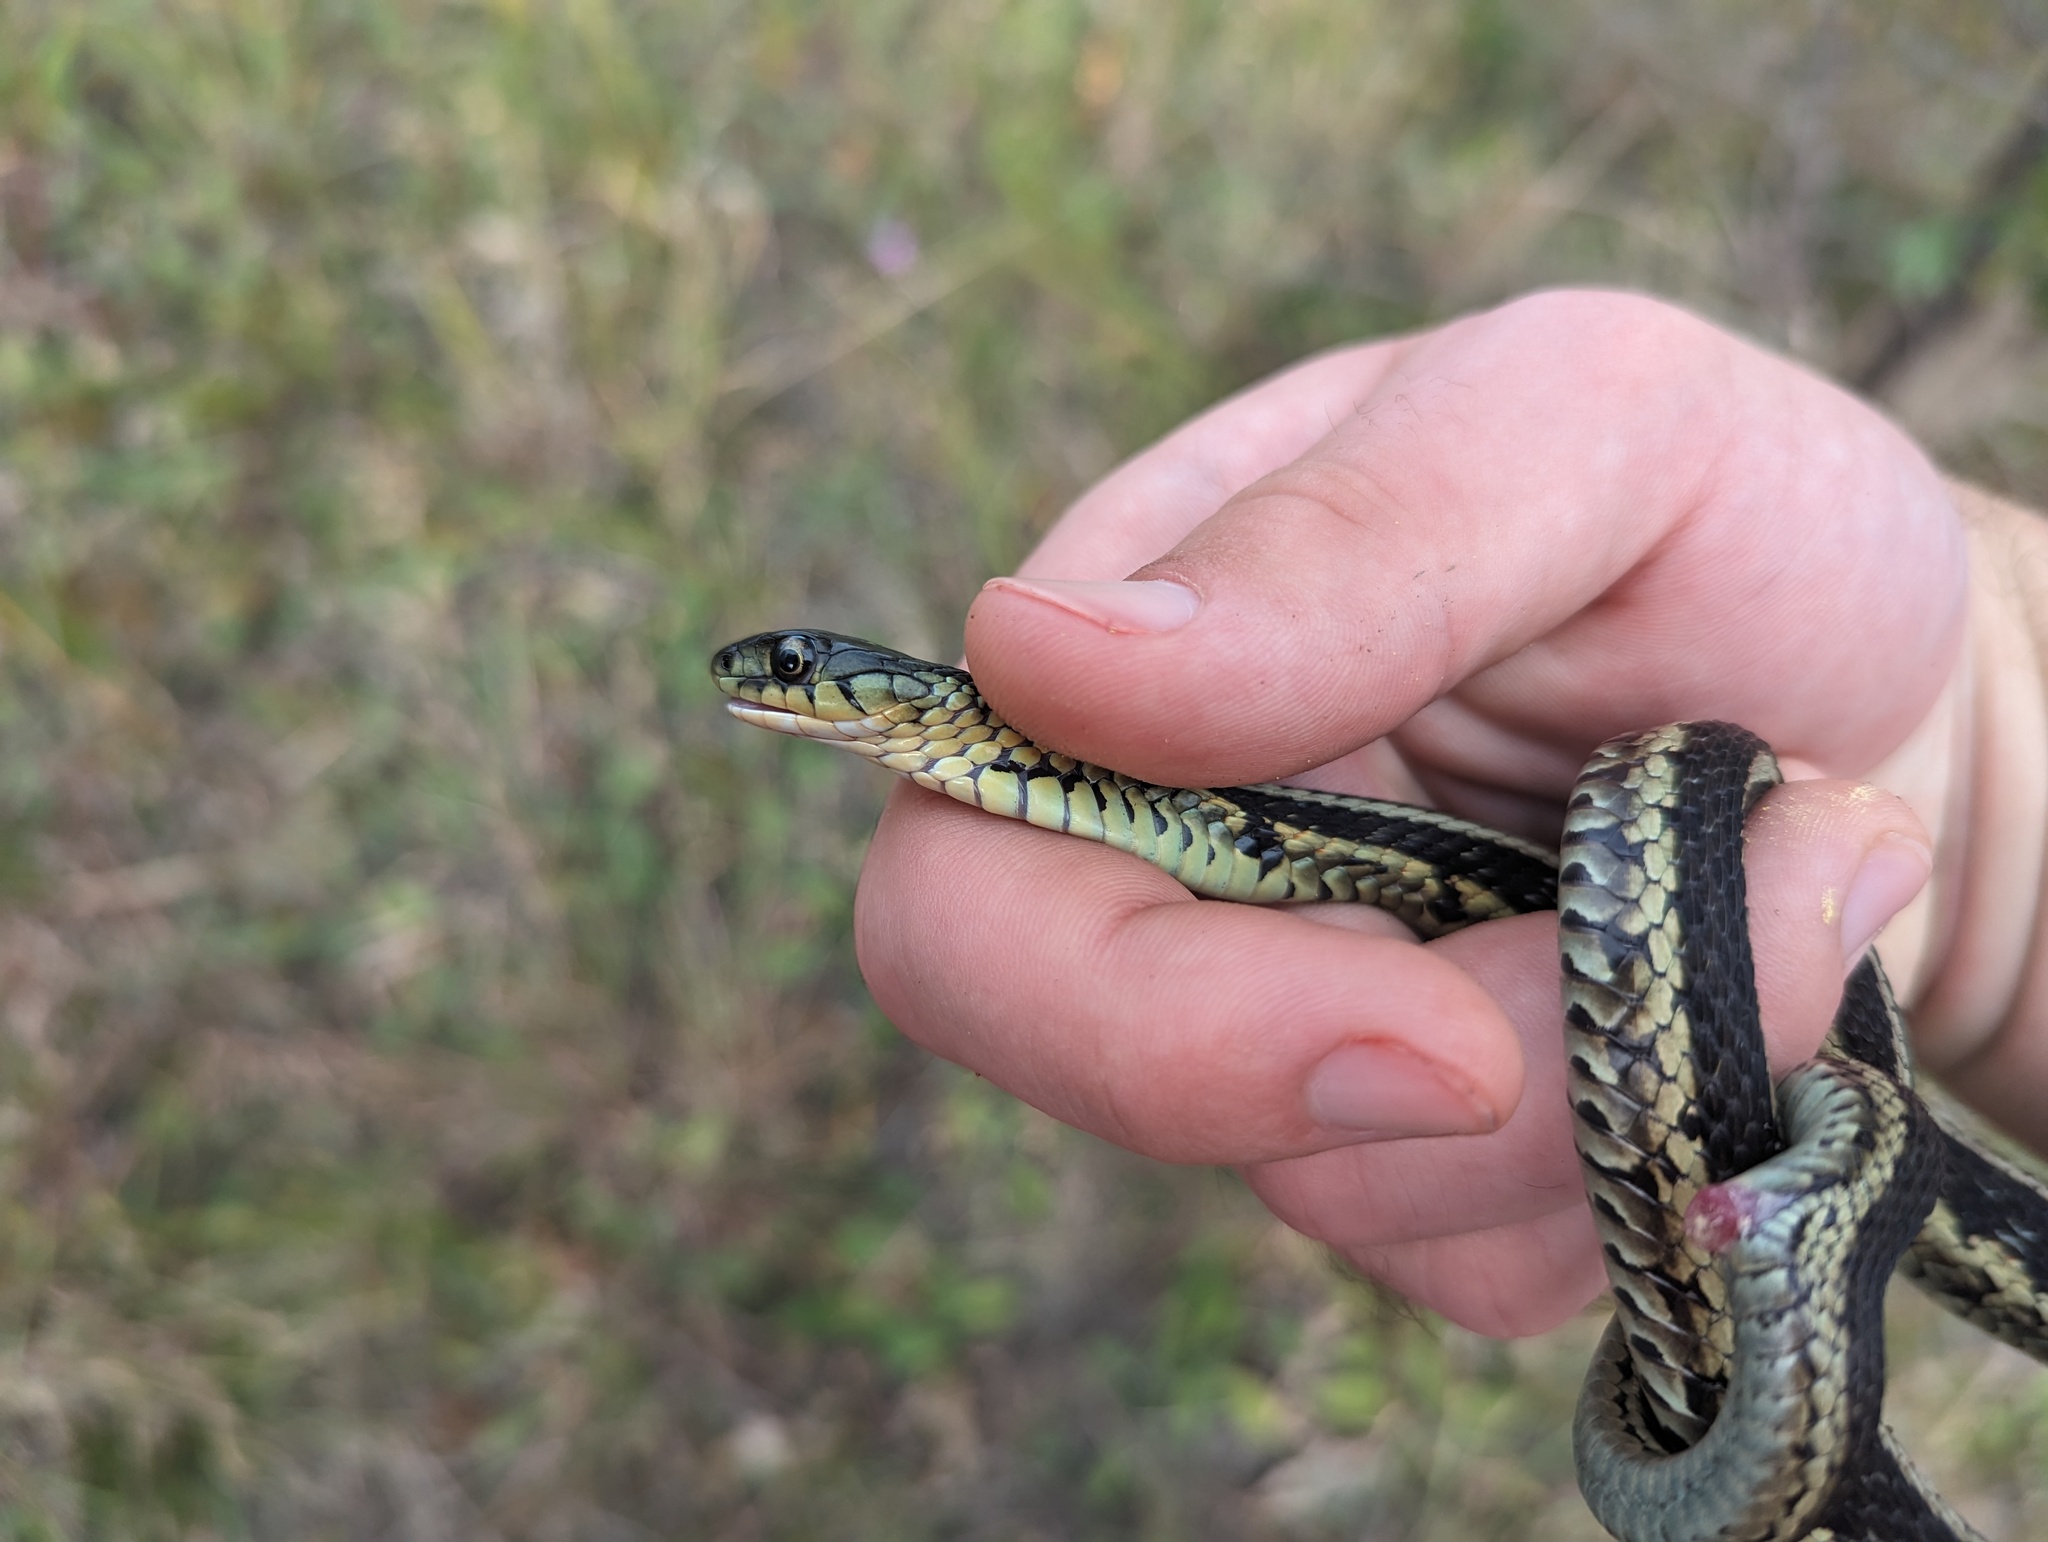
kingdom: Animalia
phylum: Chordata
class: Squamata
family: Colubridae
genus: Thamnophis
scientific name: Thamnophis sirtalis
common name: Common garter snake
